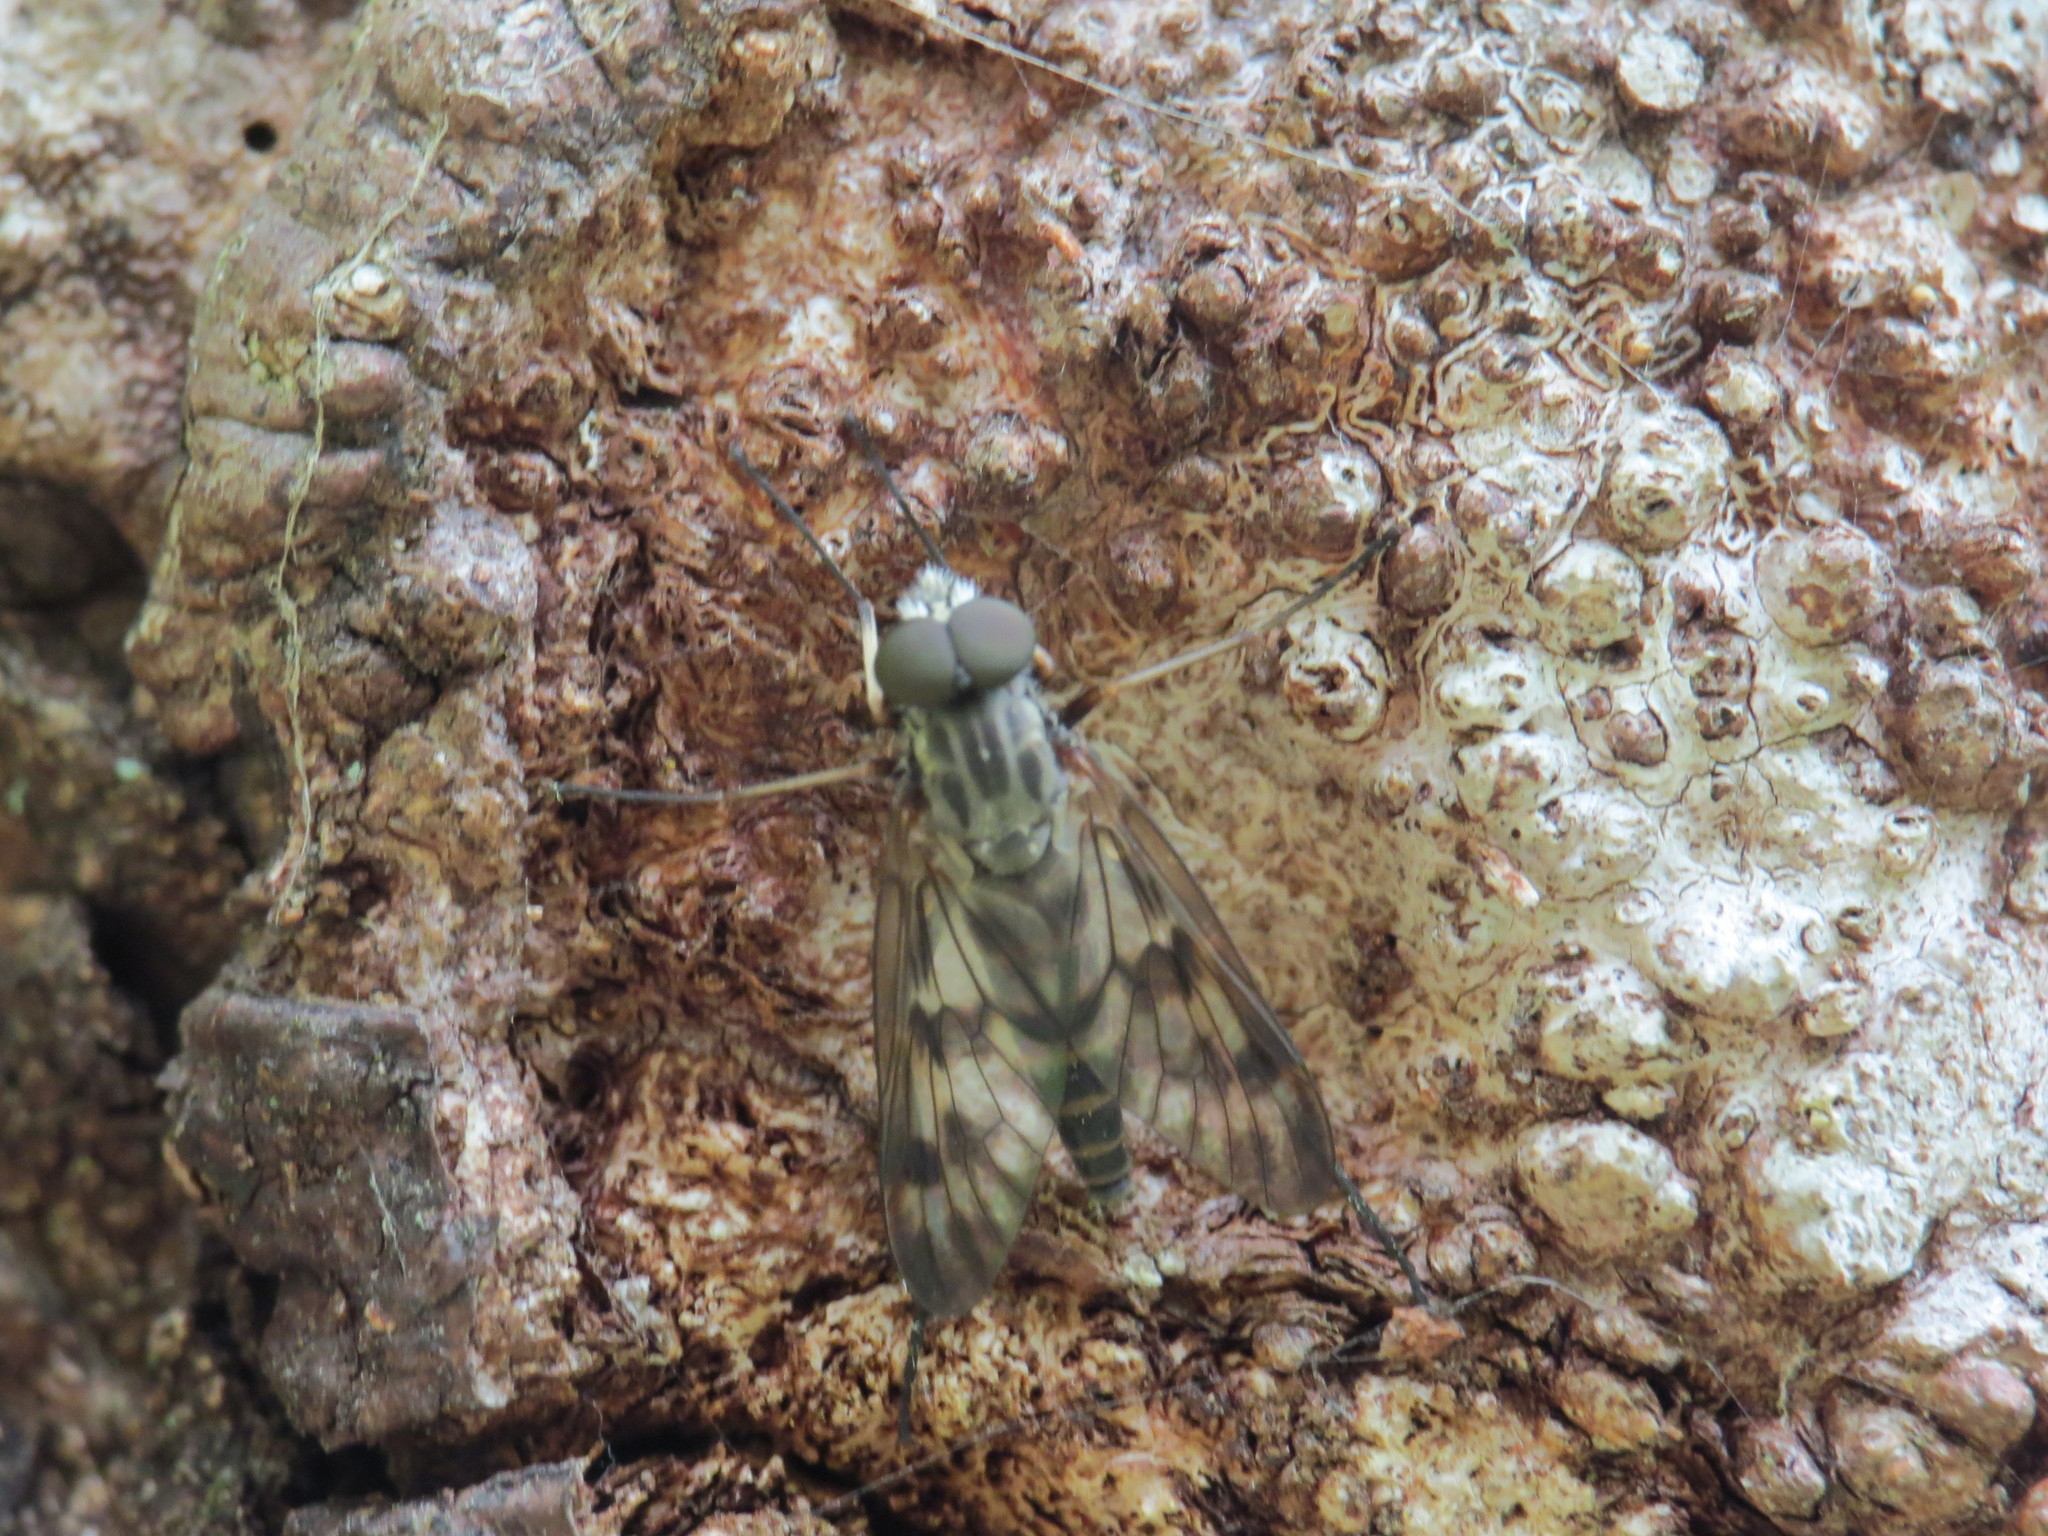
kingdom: Animalia
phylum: Arthropoda
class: Insecta
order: Diptera
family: Rhagionidae
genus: Rhagio
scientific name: Rhagio mystaceus
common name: Common snipe fly
